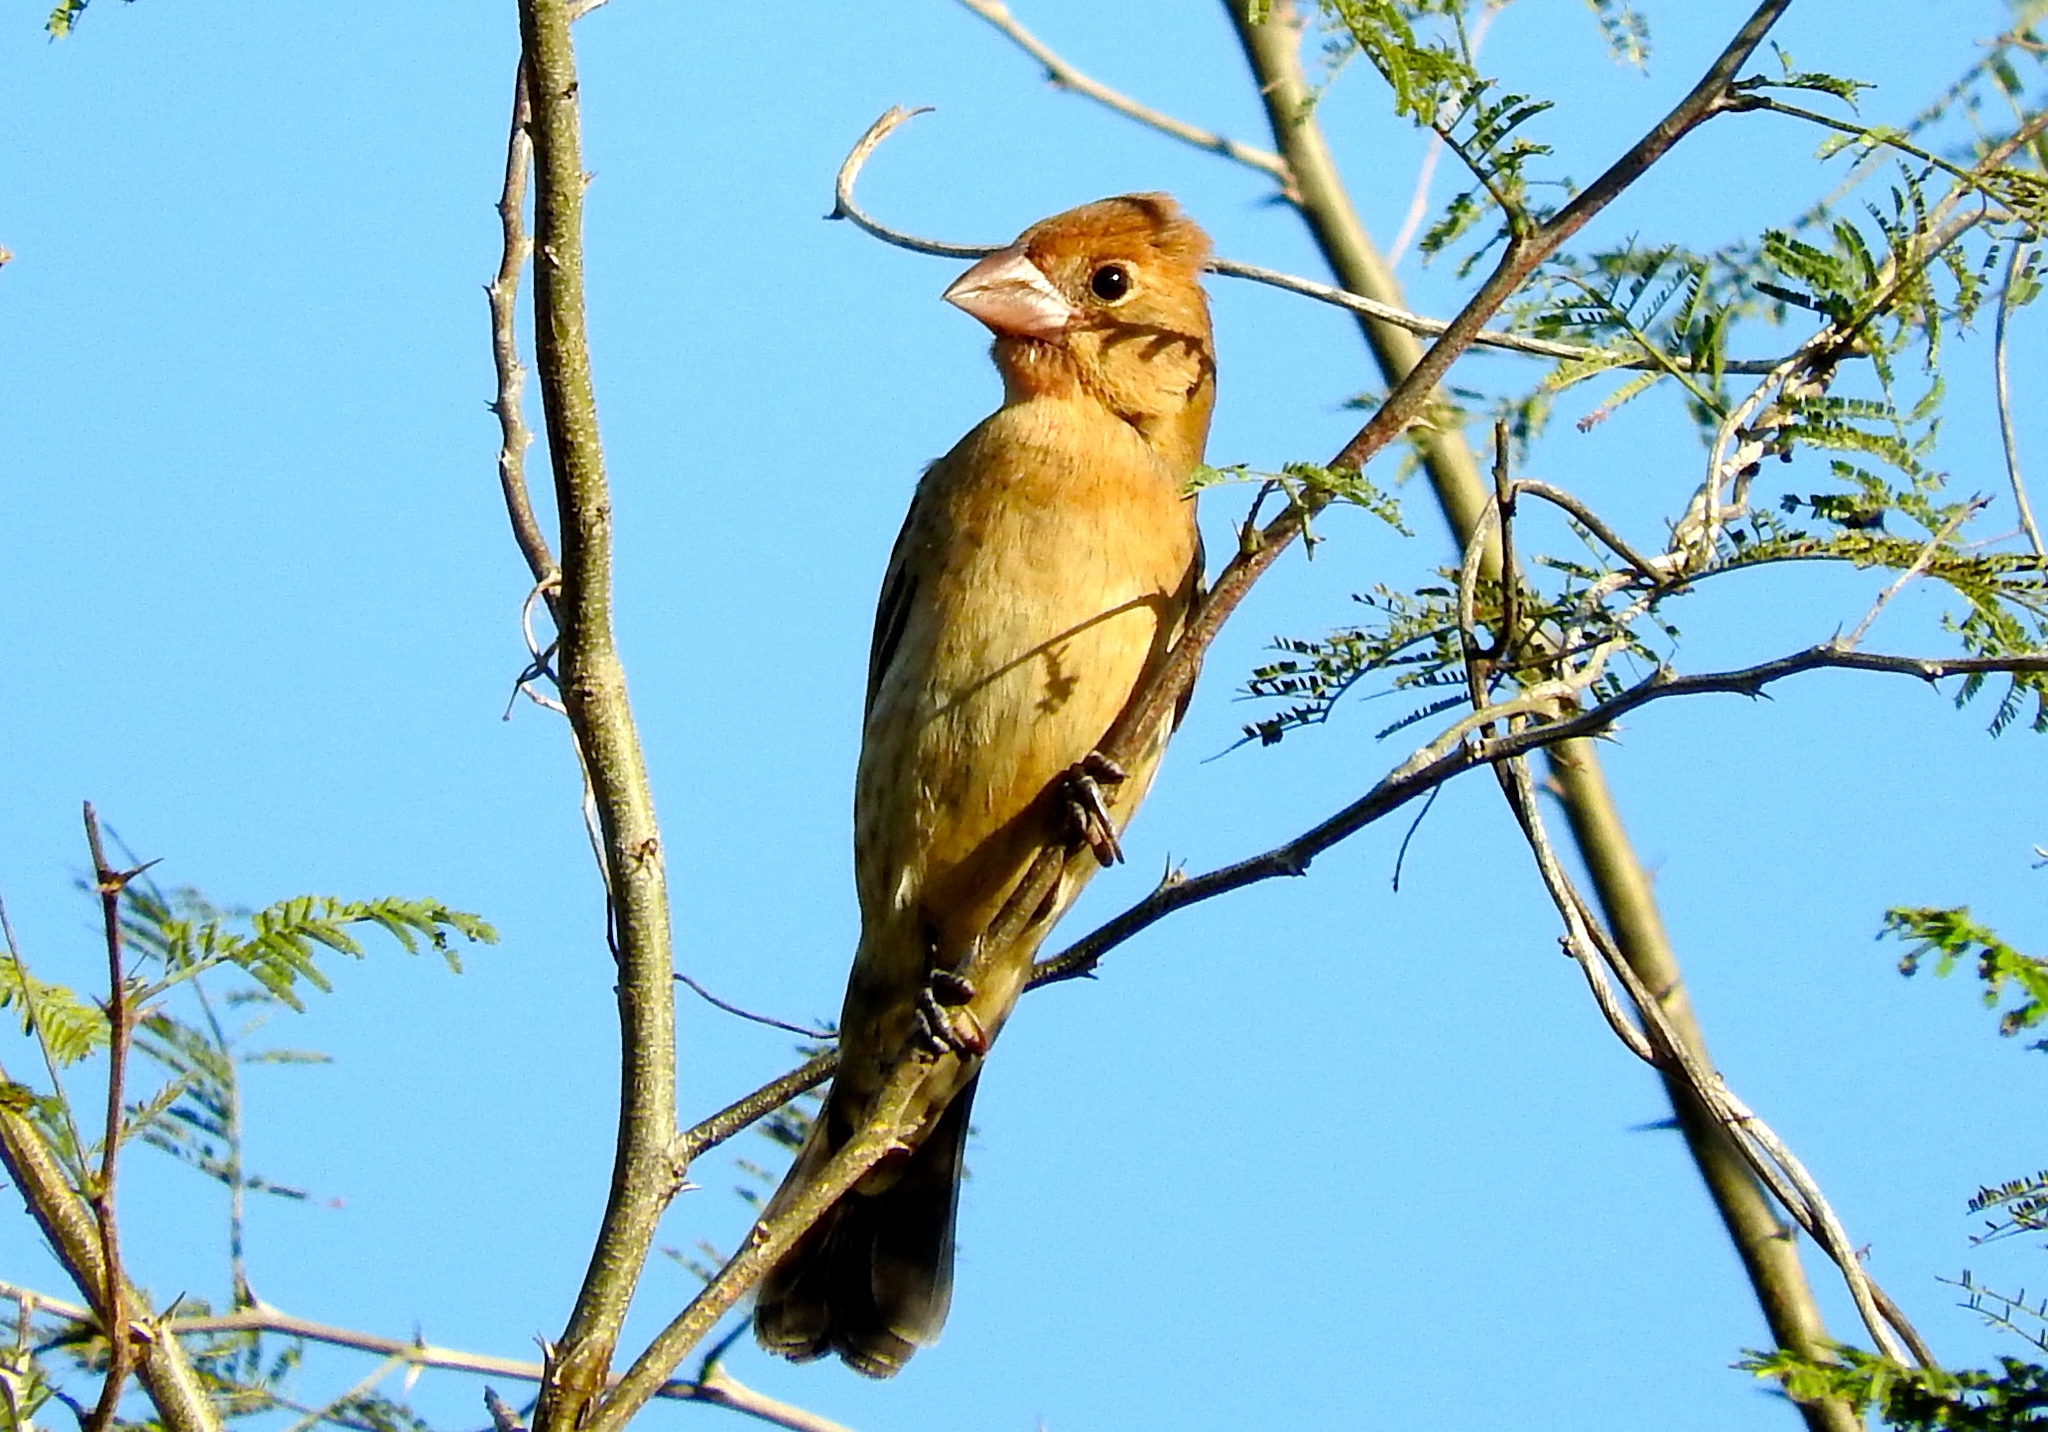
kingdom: Animalia
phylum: Chordata
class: Aves
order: Passeriformes
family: Cardinalidae
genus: Passerina
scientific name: Passerina caerulea
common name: Blue grosbeak
